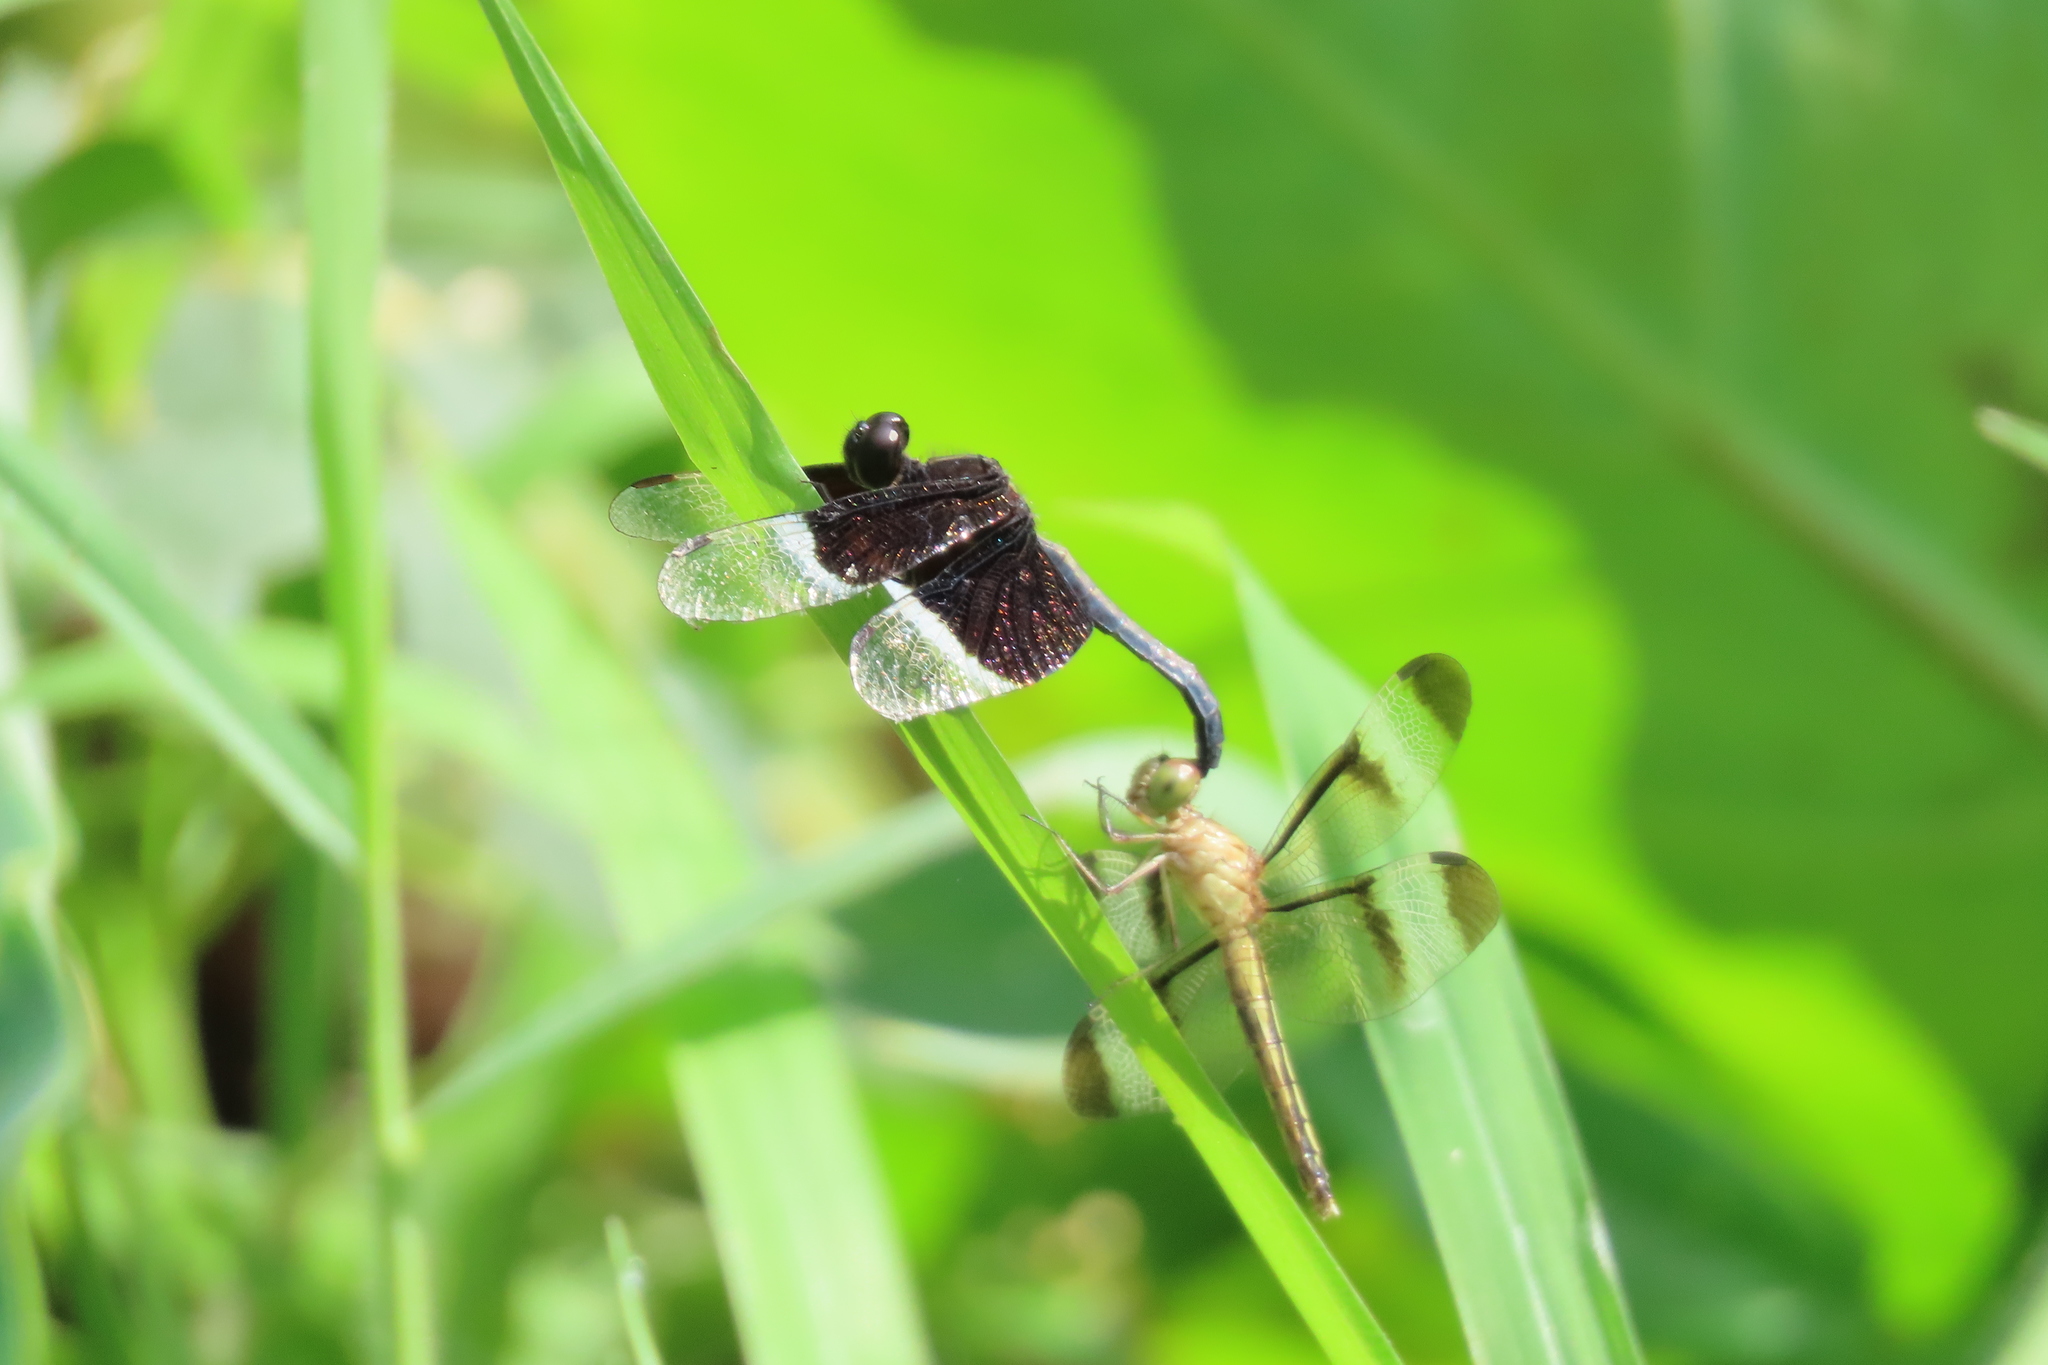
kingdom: Animalia
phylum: Arthropoda
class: Insecta
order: Odonata
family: Libellulidae
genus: Neurothemis
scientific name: Neurothemis tullia
